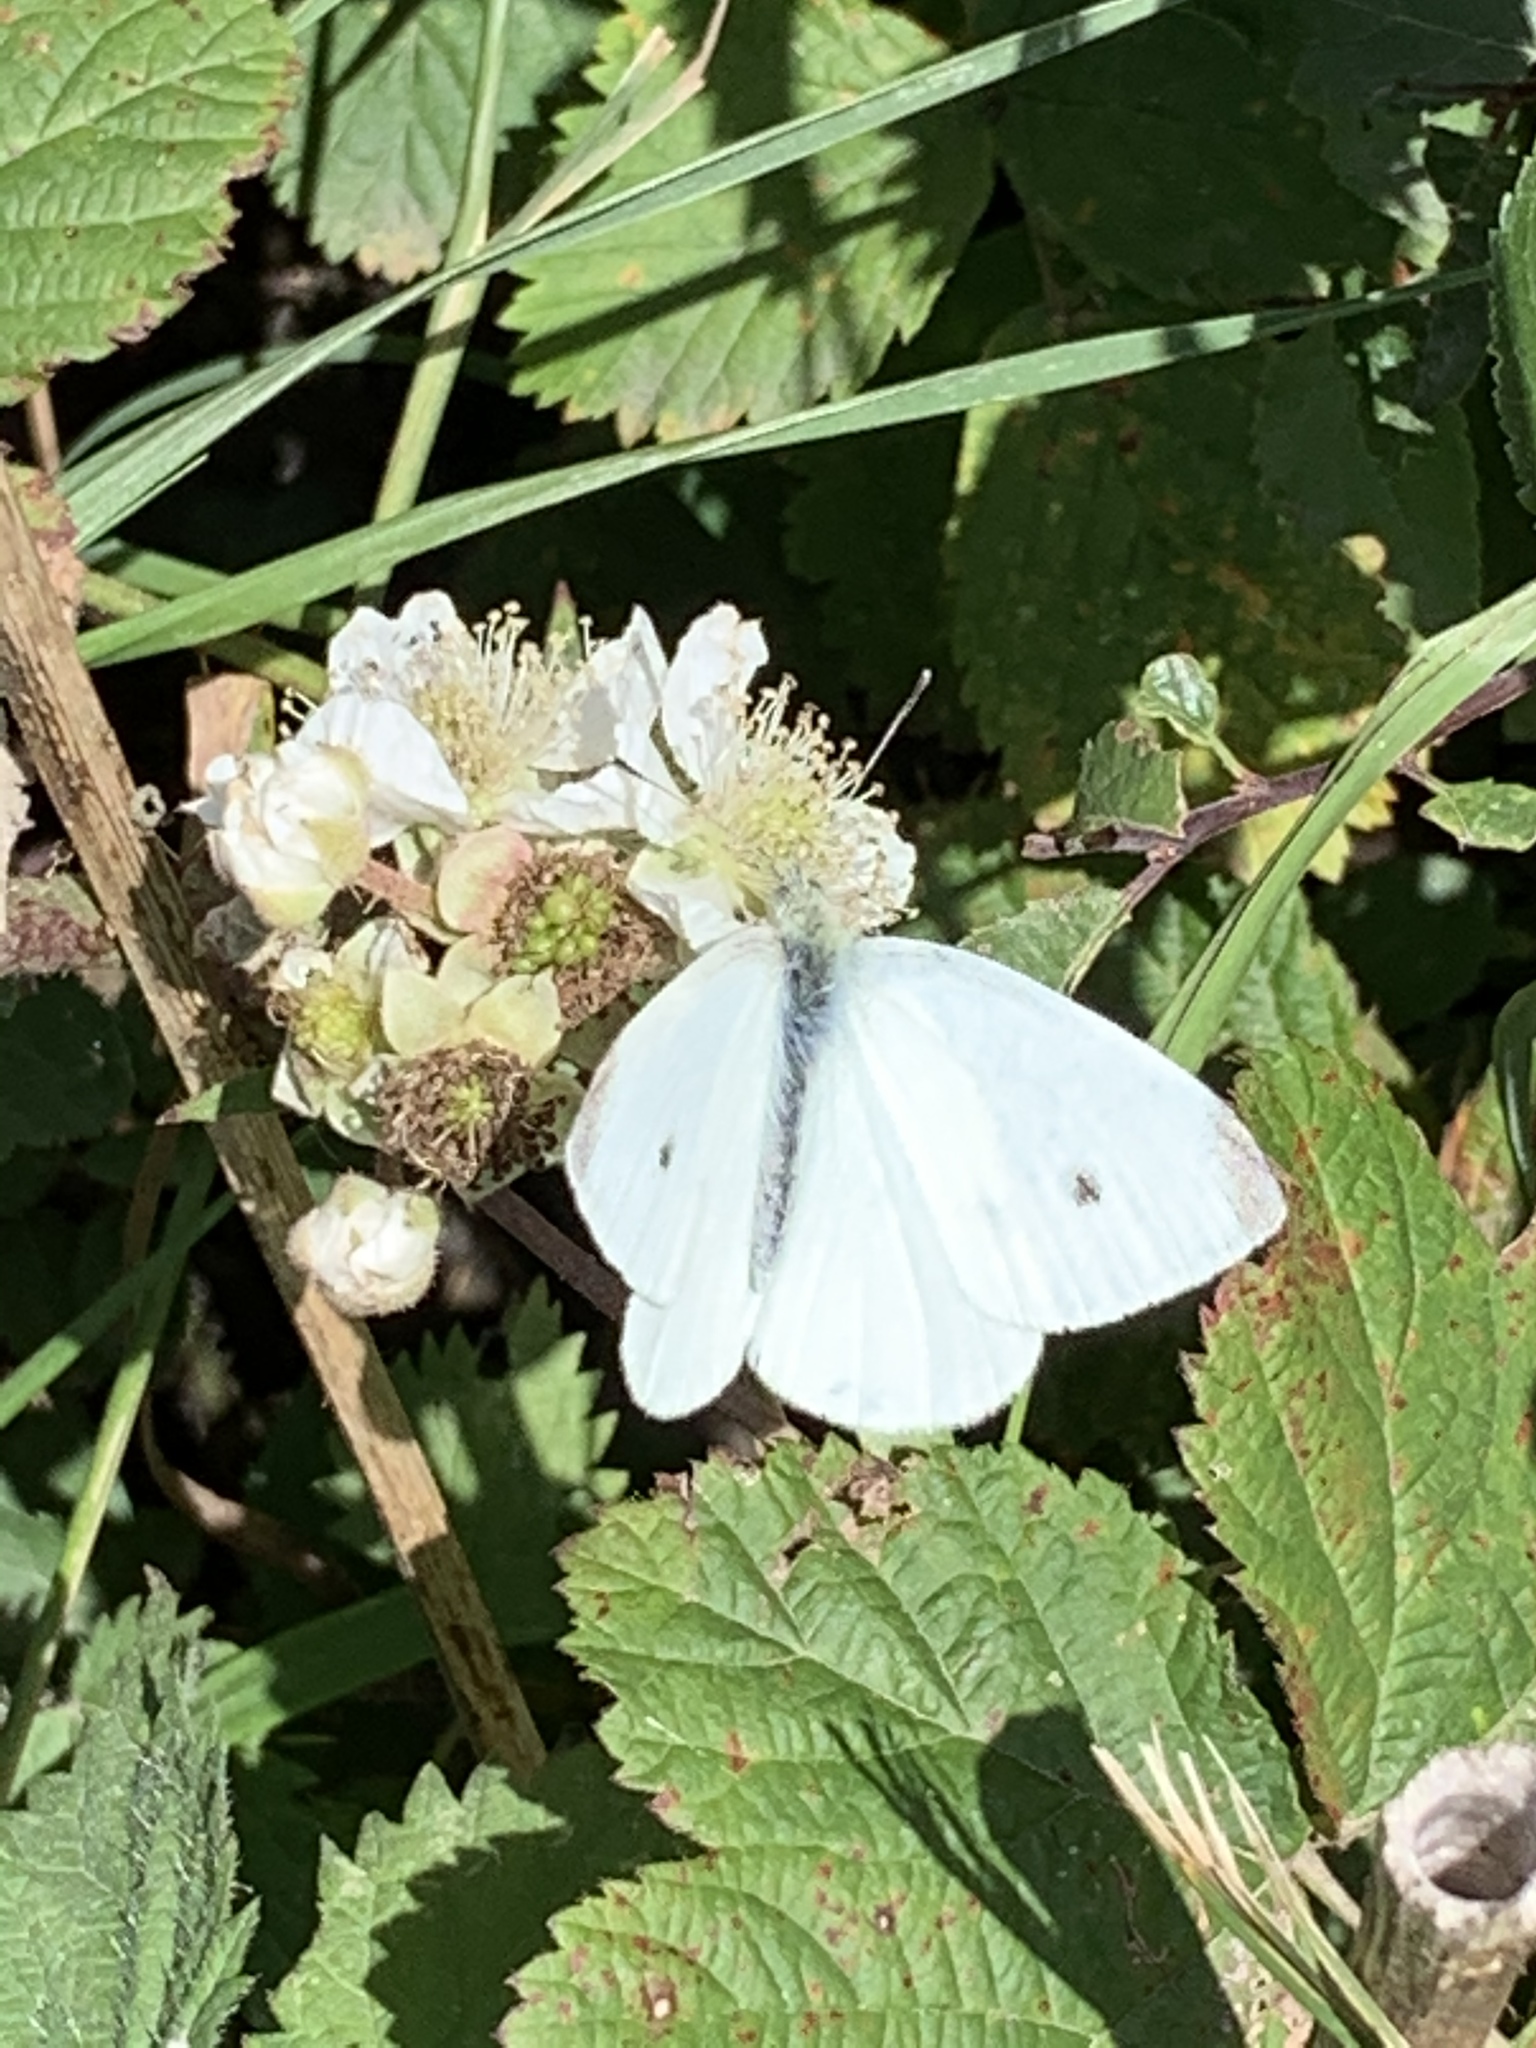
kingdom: Animalia
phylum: Arthropoda
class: Insecta
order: Lepidoptera
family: Pieridae
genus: Pieris
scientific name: Pieris rapae
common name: Small white
